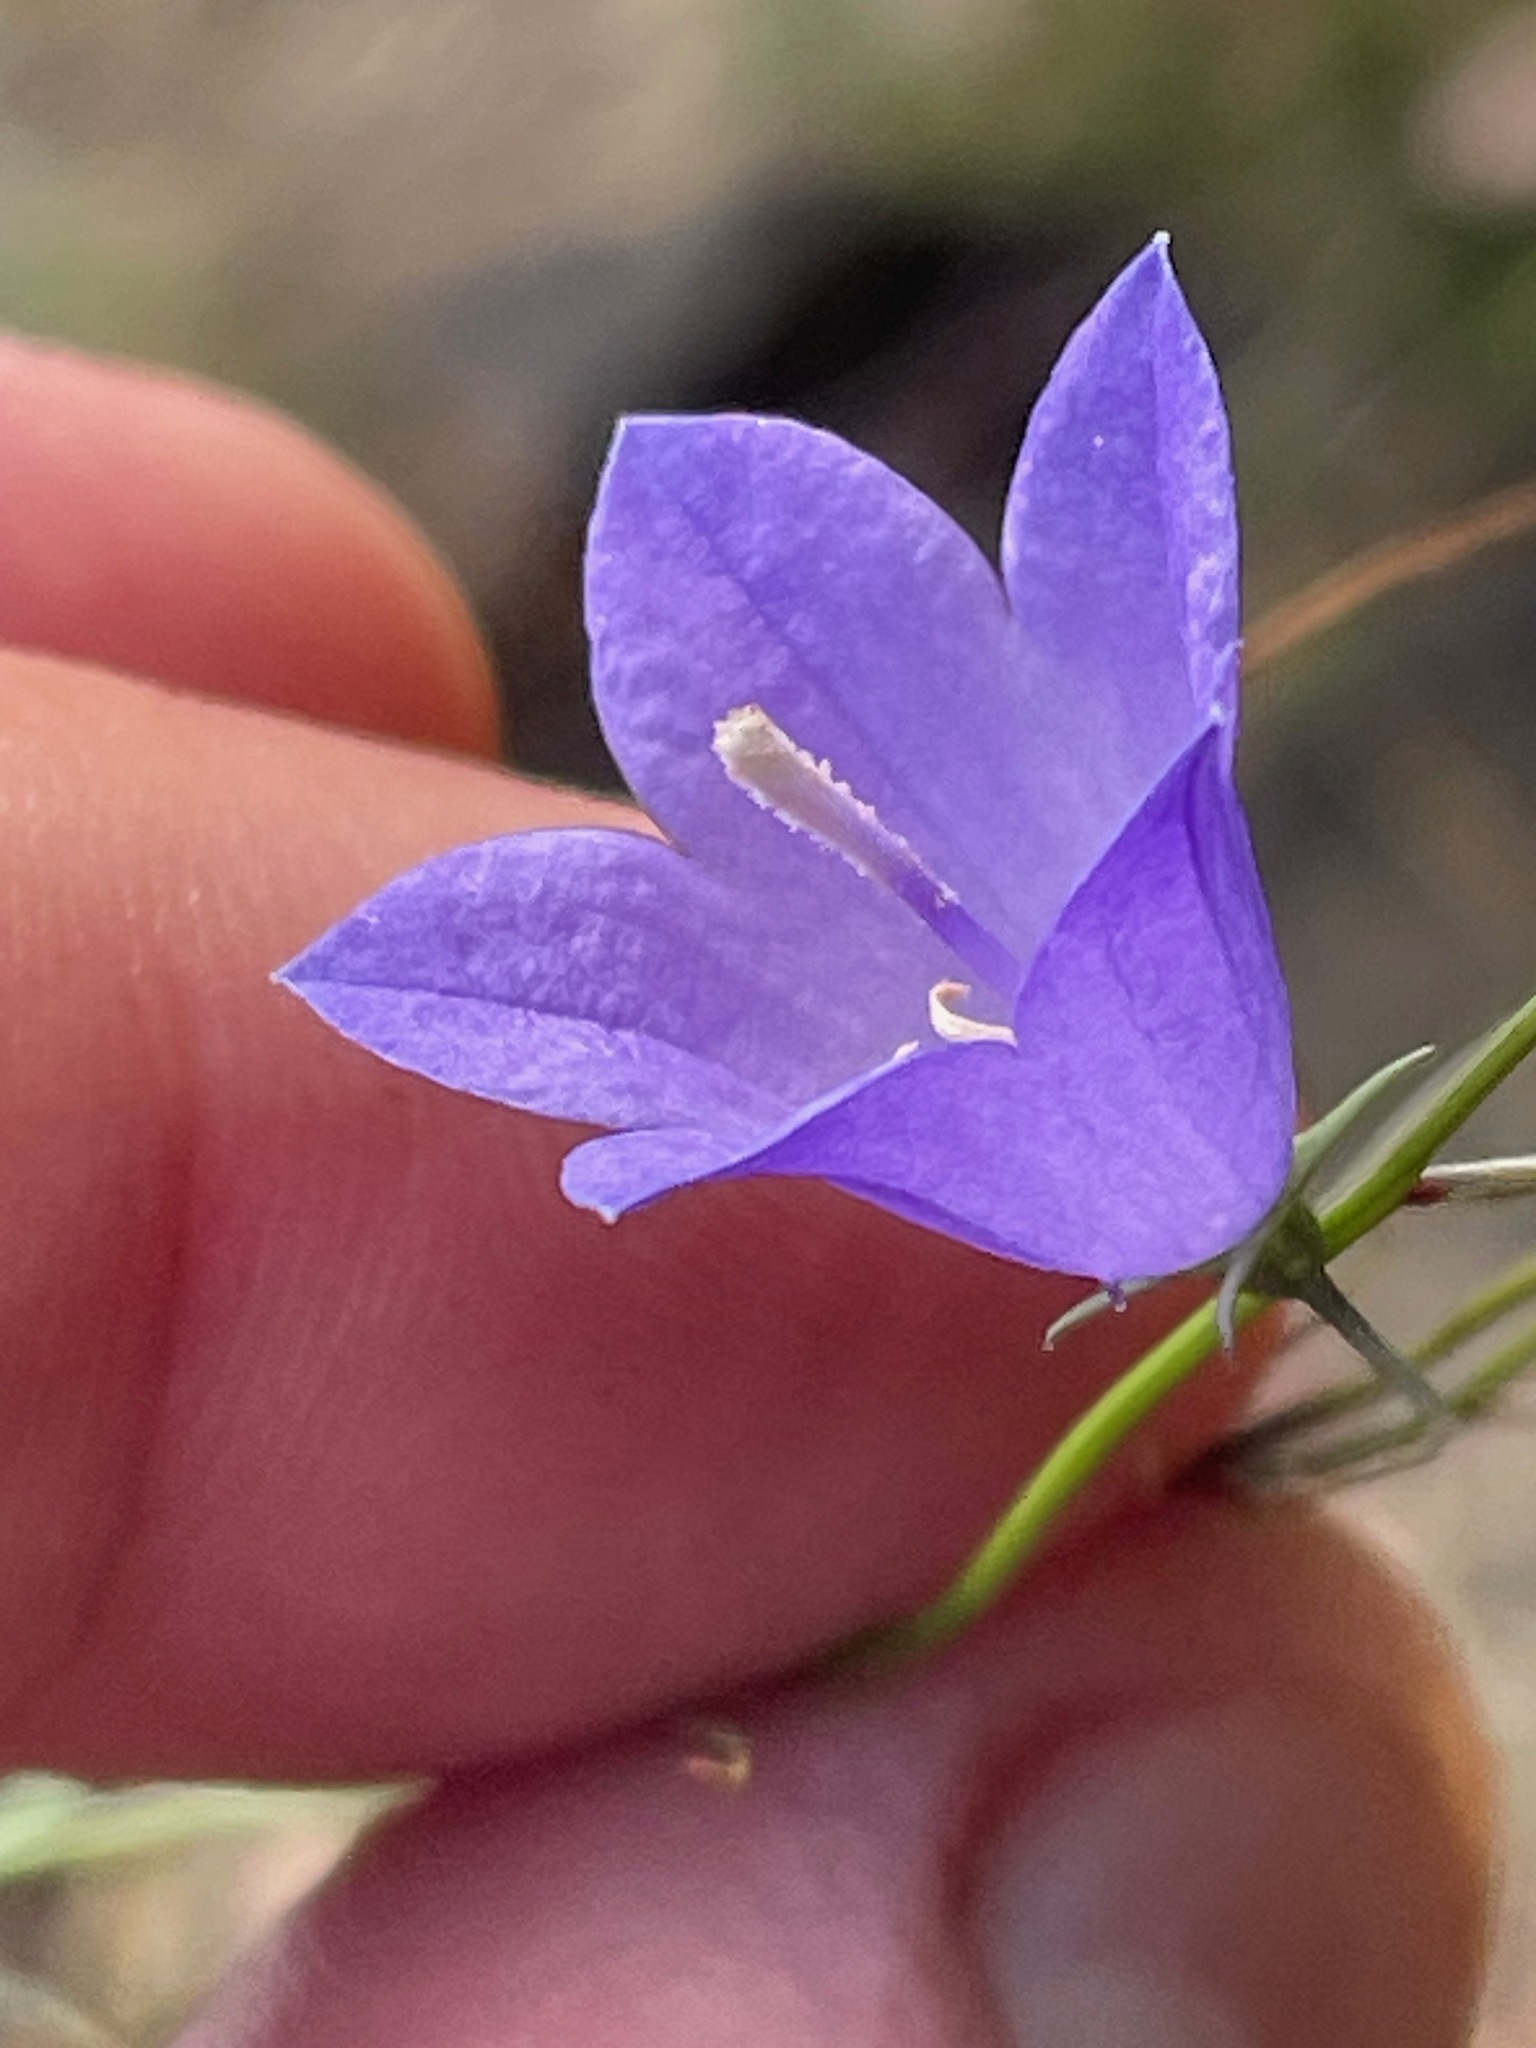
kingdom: Plantae
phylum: Tracheophyta
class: Magnoliopsida
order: Asterales
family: Campanulaceae
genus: Campanula
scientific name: Campanula intercedens
